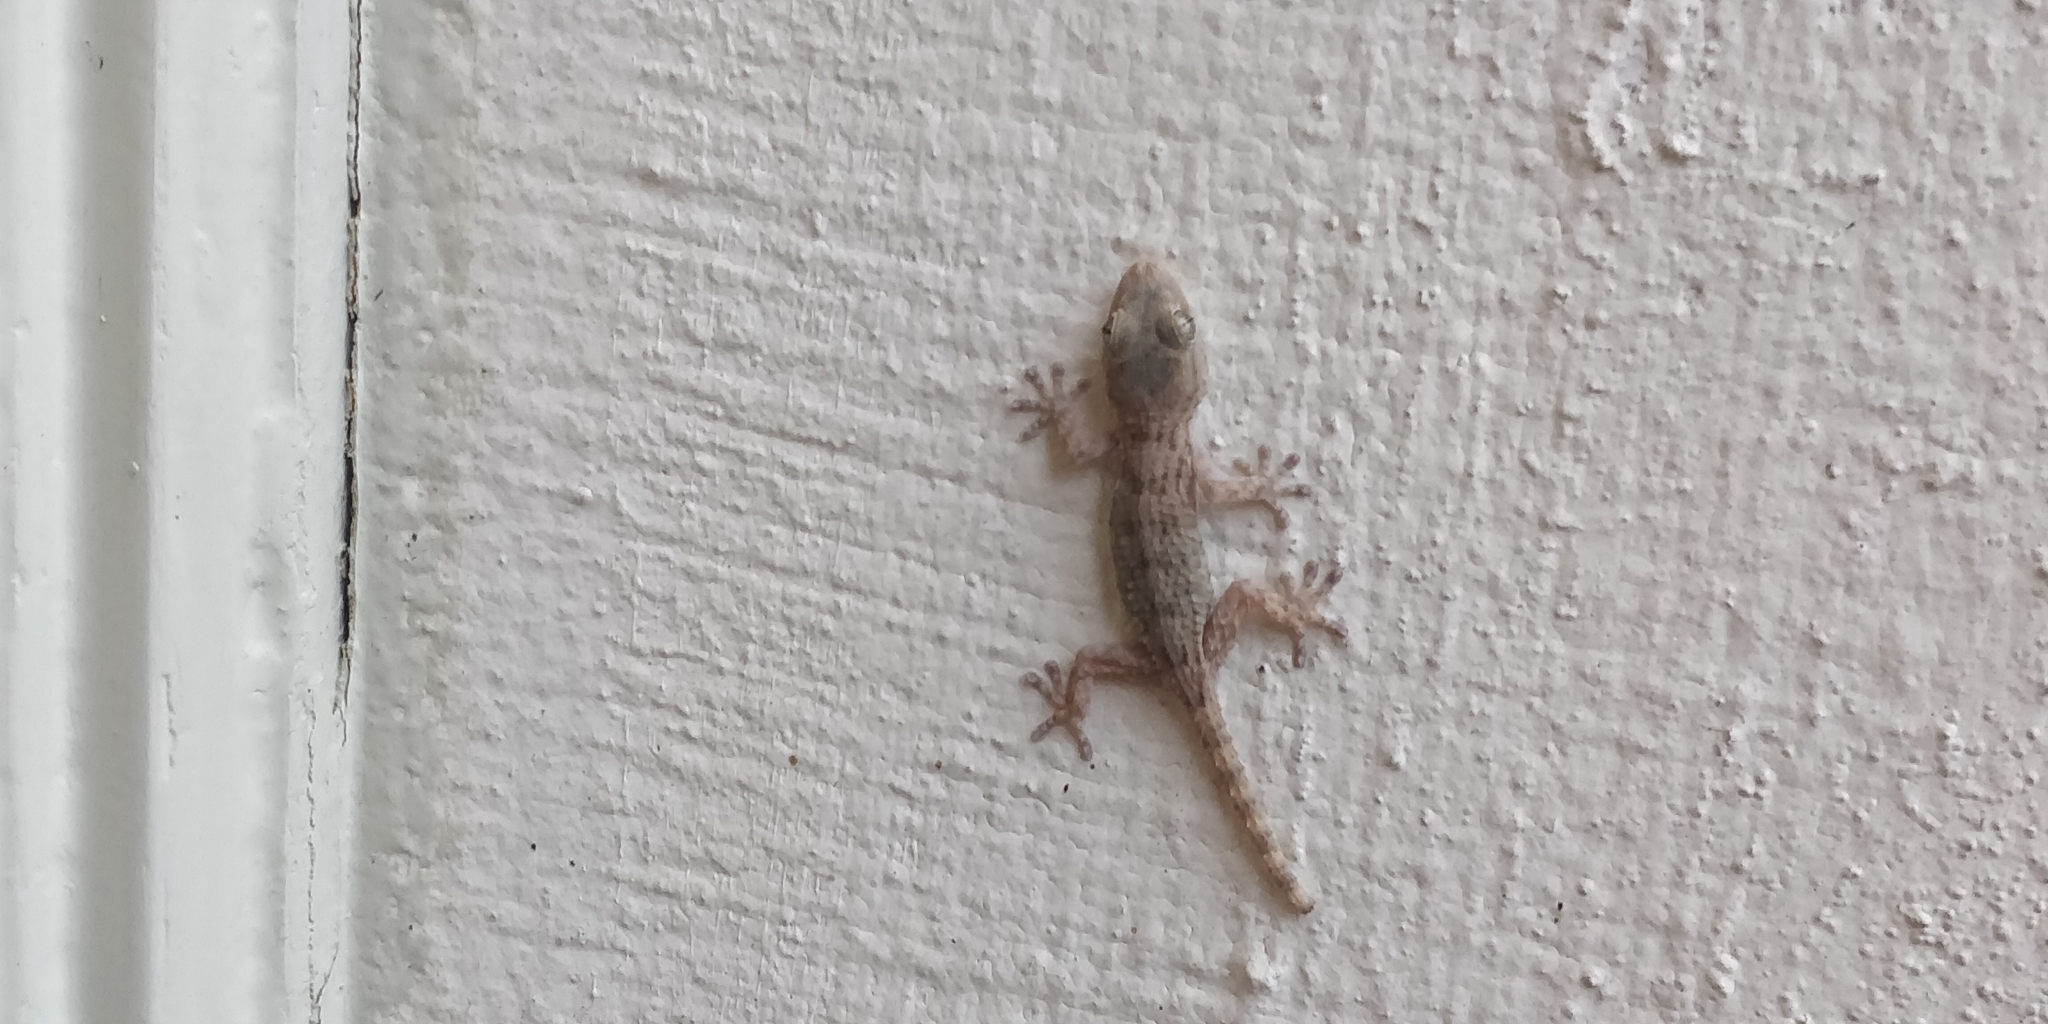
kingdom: Animalia
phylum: Chordata
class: Squamata
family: Phyllodactylidae
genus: Tarentola
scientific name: Tarentola mauritanica
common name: Moorish gecko
